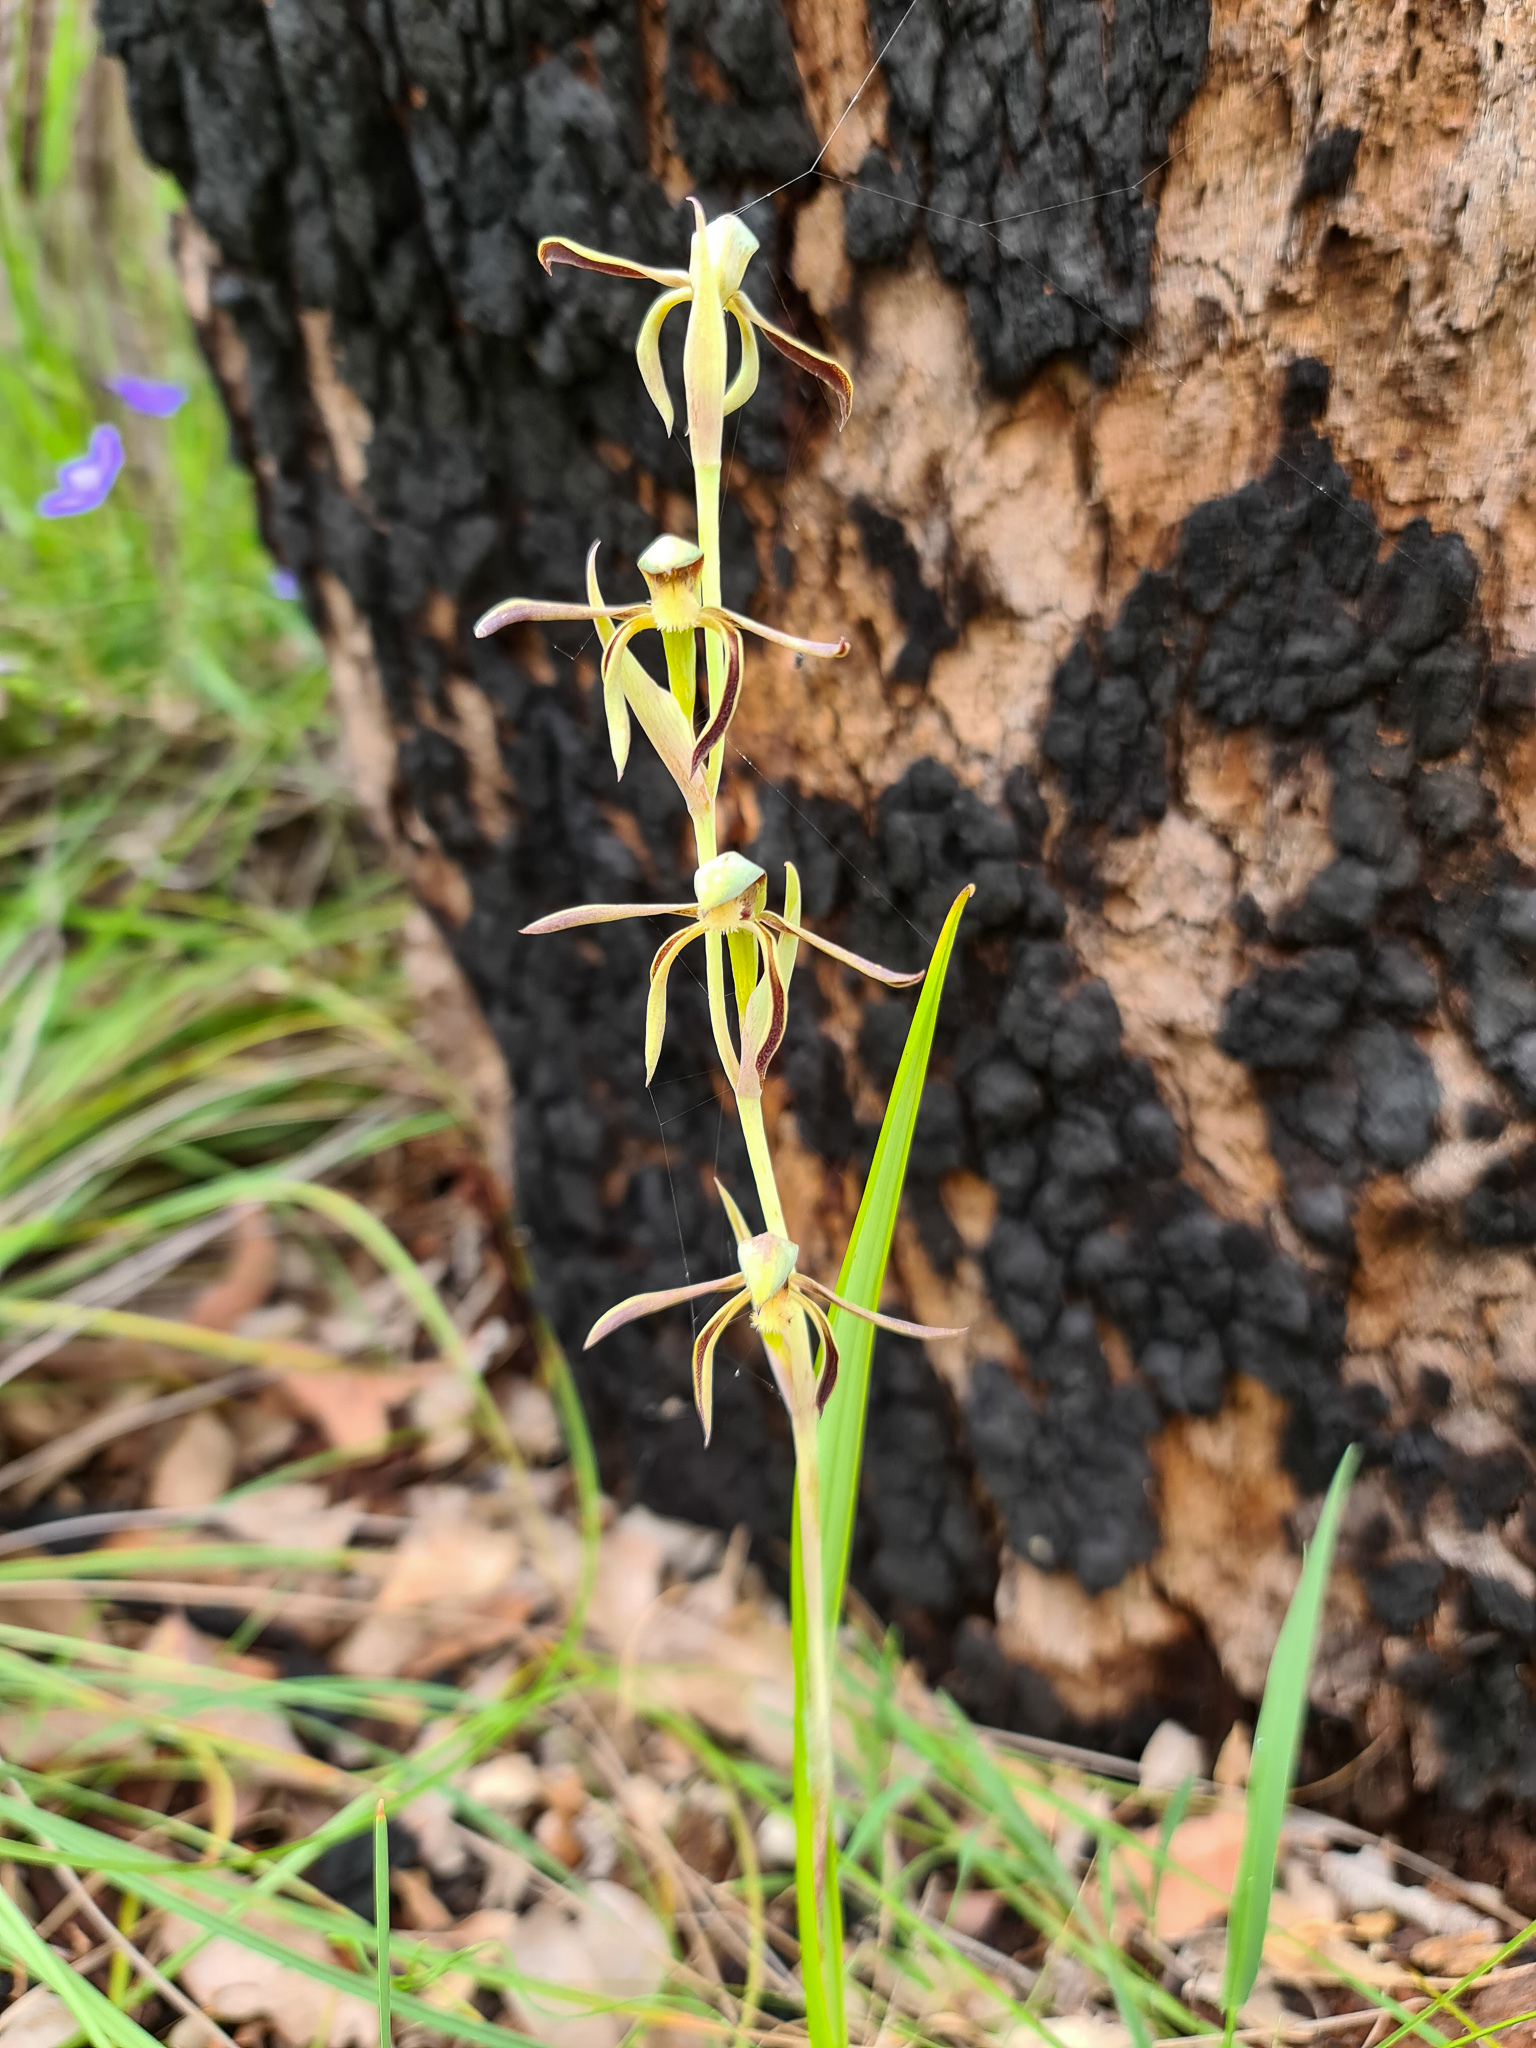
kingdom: Plantae
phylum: Tracheophyta
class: Liliopsida
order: Asparagales
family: Orchidaceae
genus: Lyperanthus
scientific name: Lyperanthus serratus
